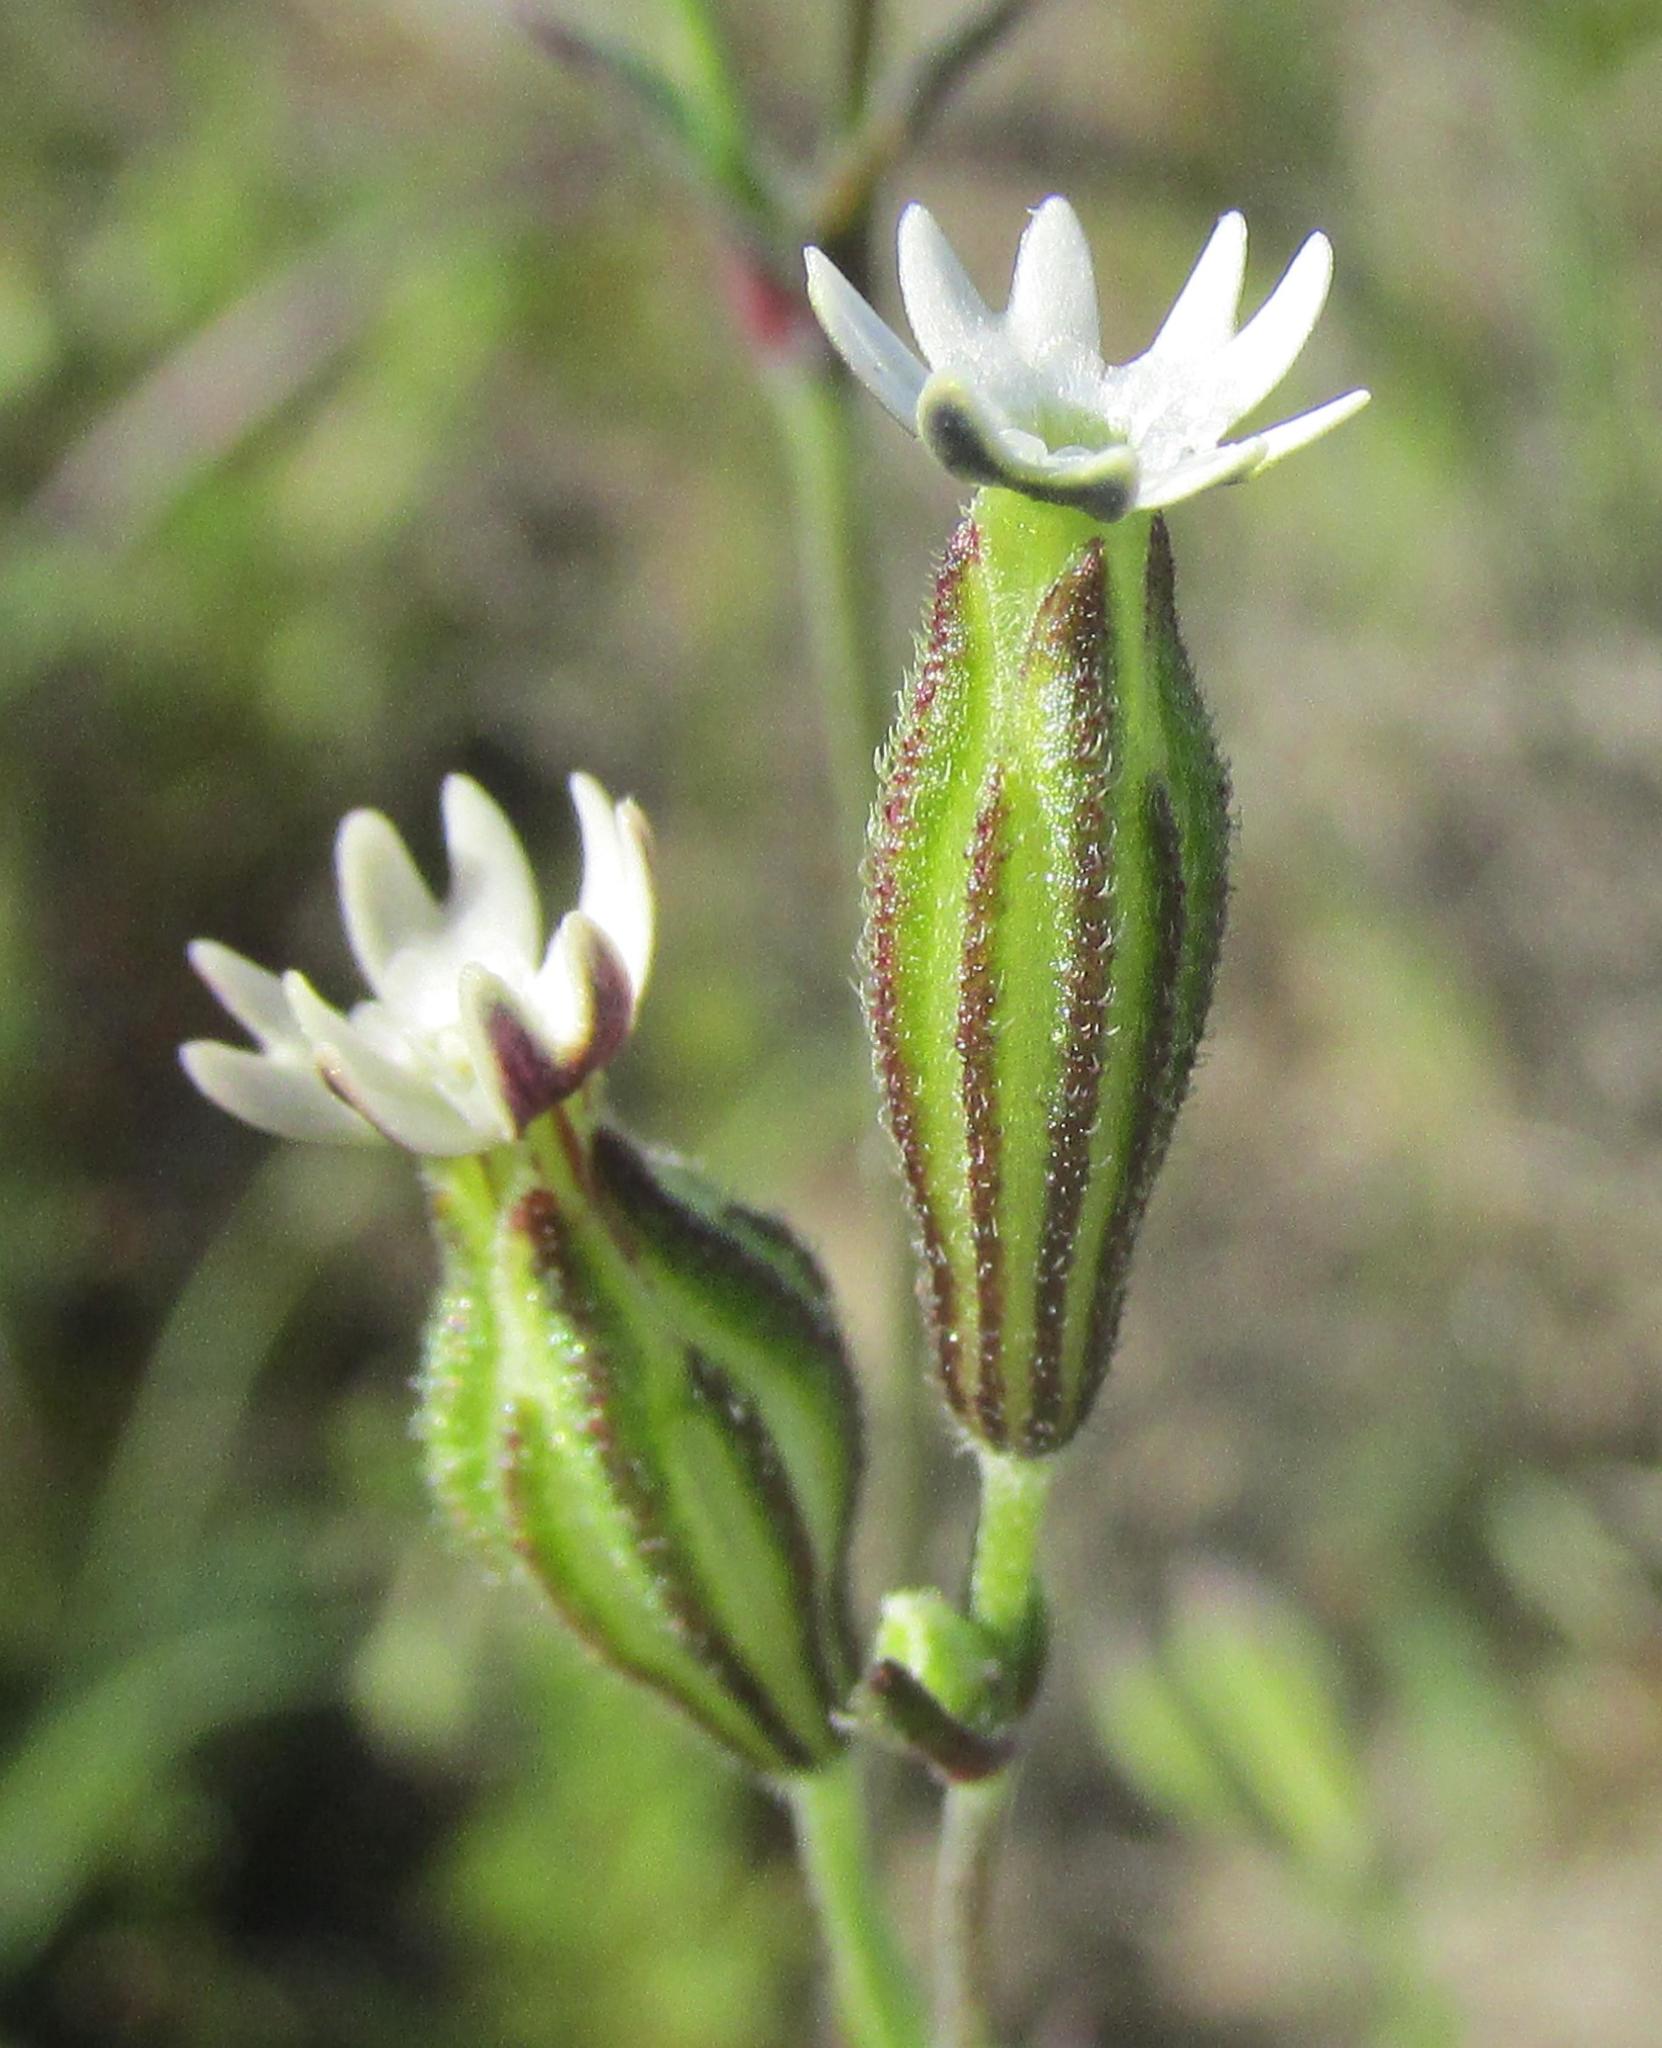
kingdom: Plantae
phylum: Tracheophyta
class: Magnoliopsida
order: Caryophyllales
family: Caryophyllaceae
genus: Silene
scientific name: Silene aethiopica
